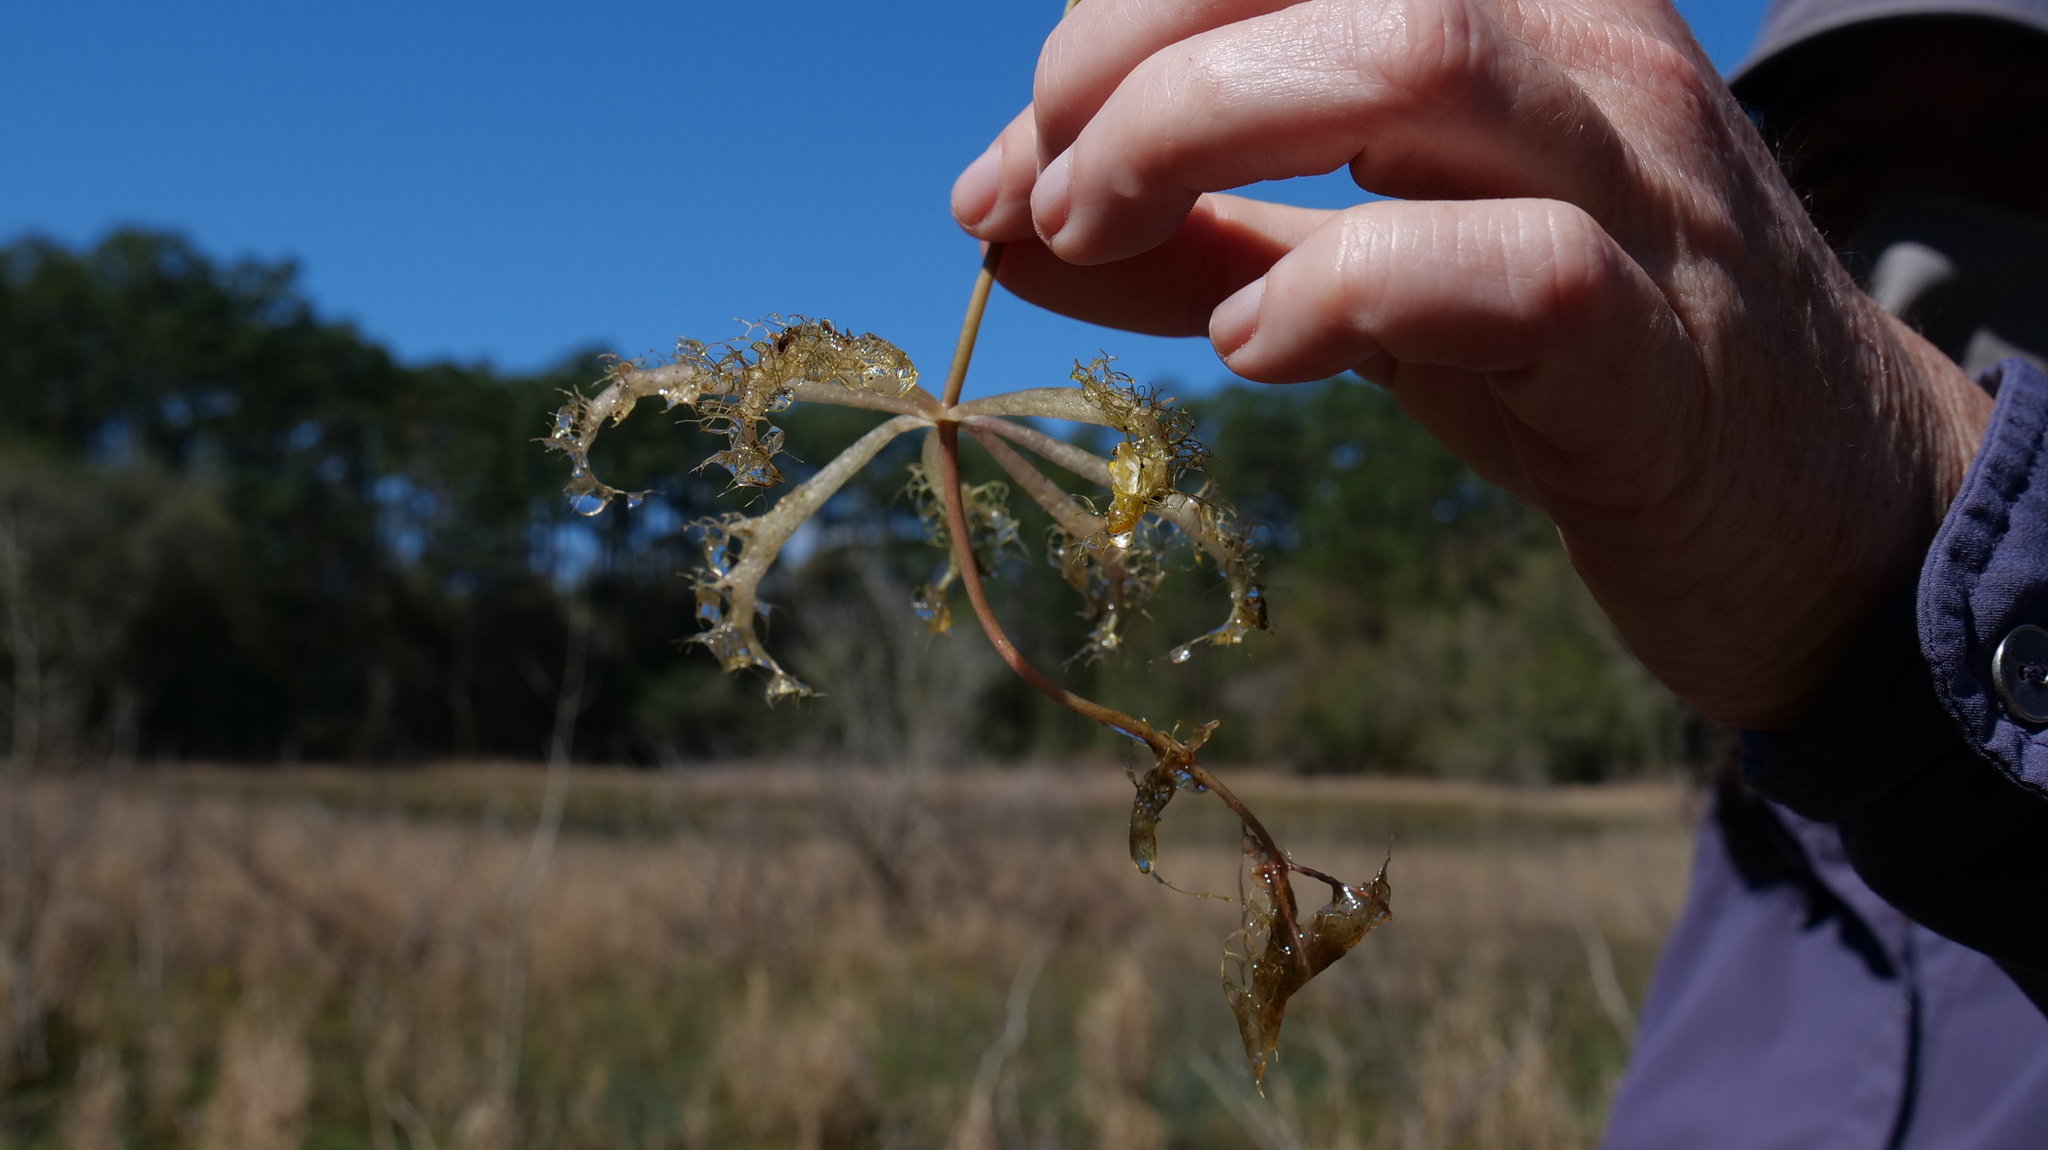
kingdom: Plantae
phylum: Tracheophyta
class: Magnoliopsida
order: Lamiales
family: Lentibulariaceae
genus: Utricularia
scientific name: Utricularia inflata
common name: Floating bladderwort
